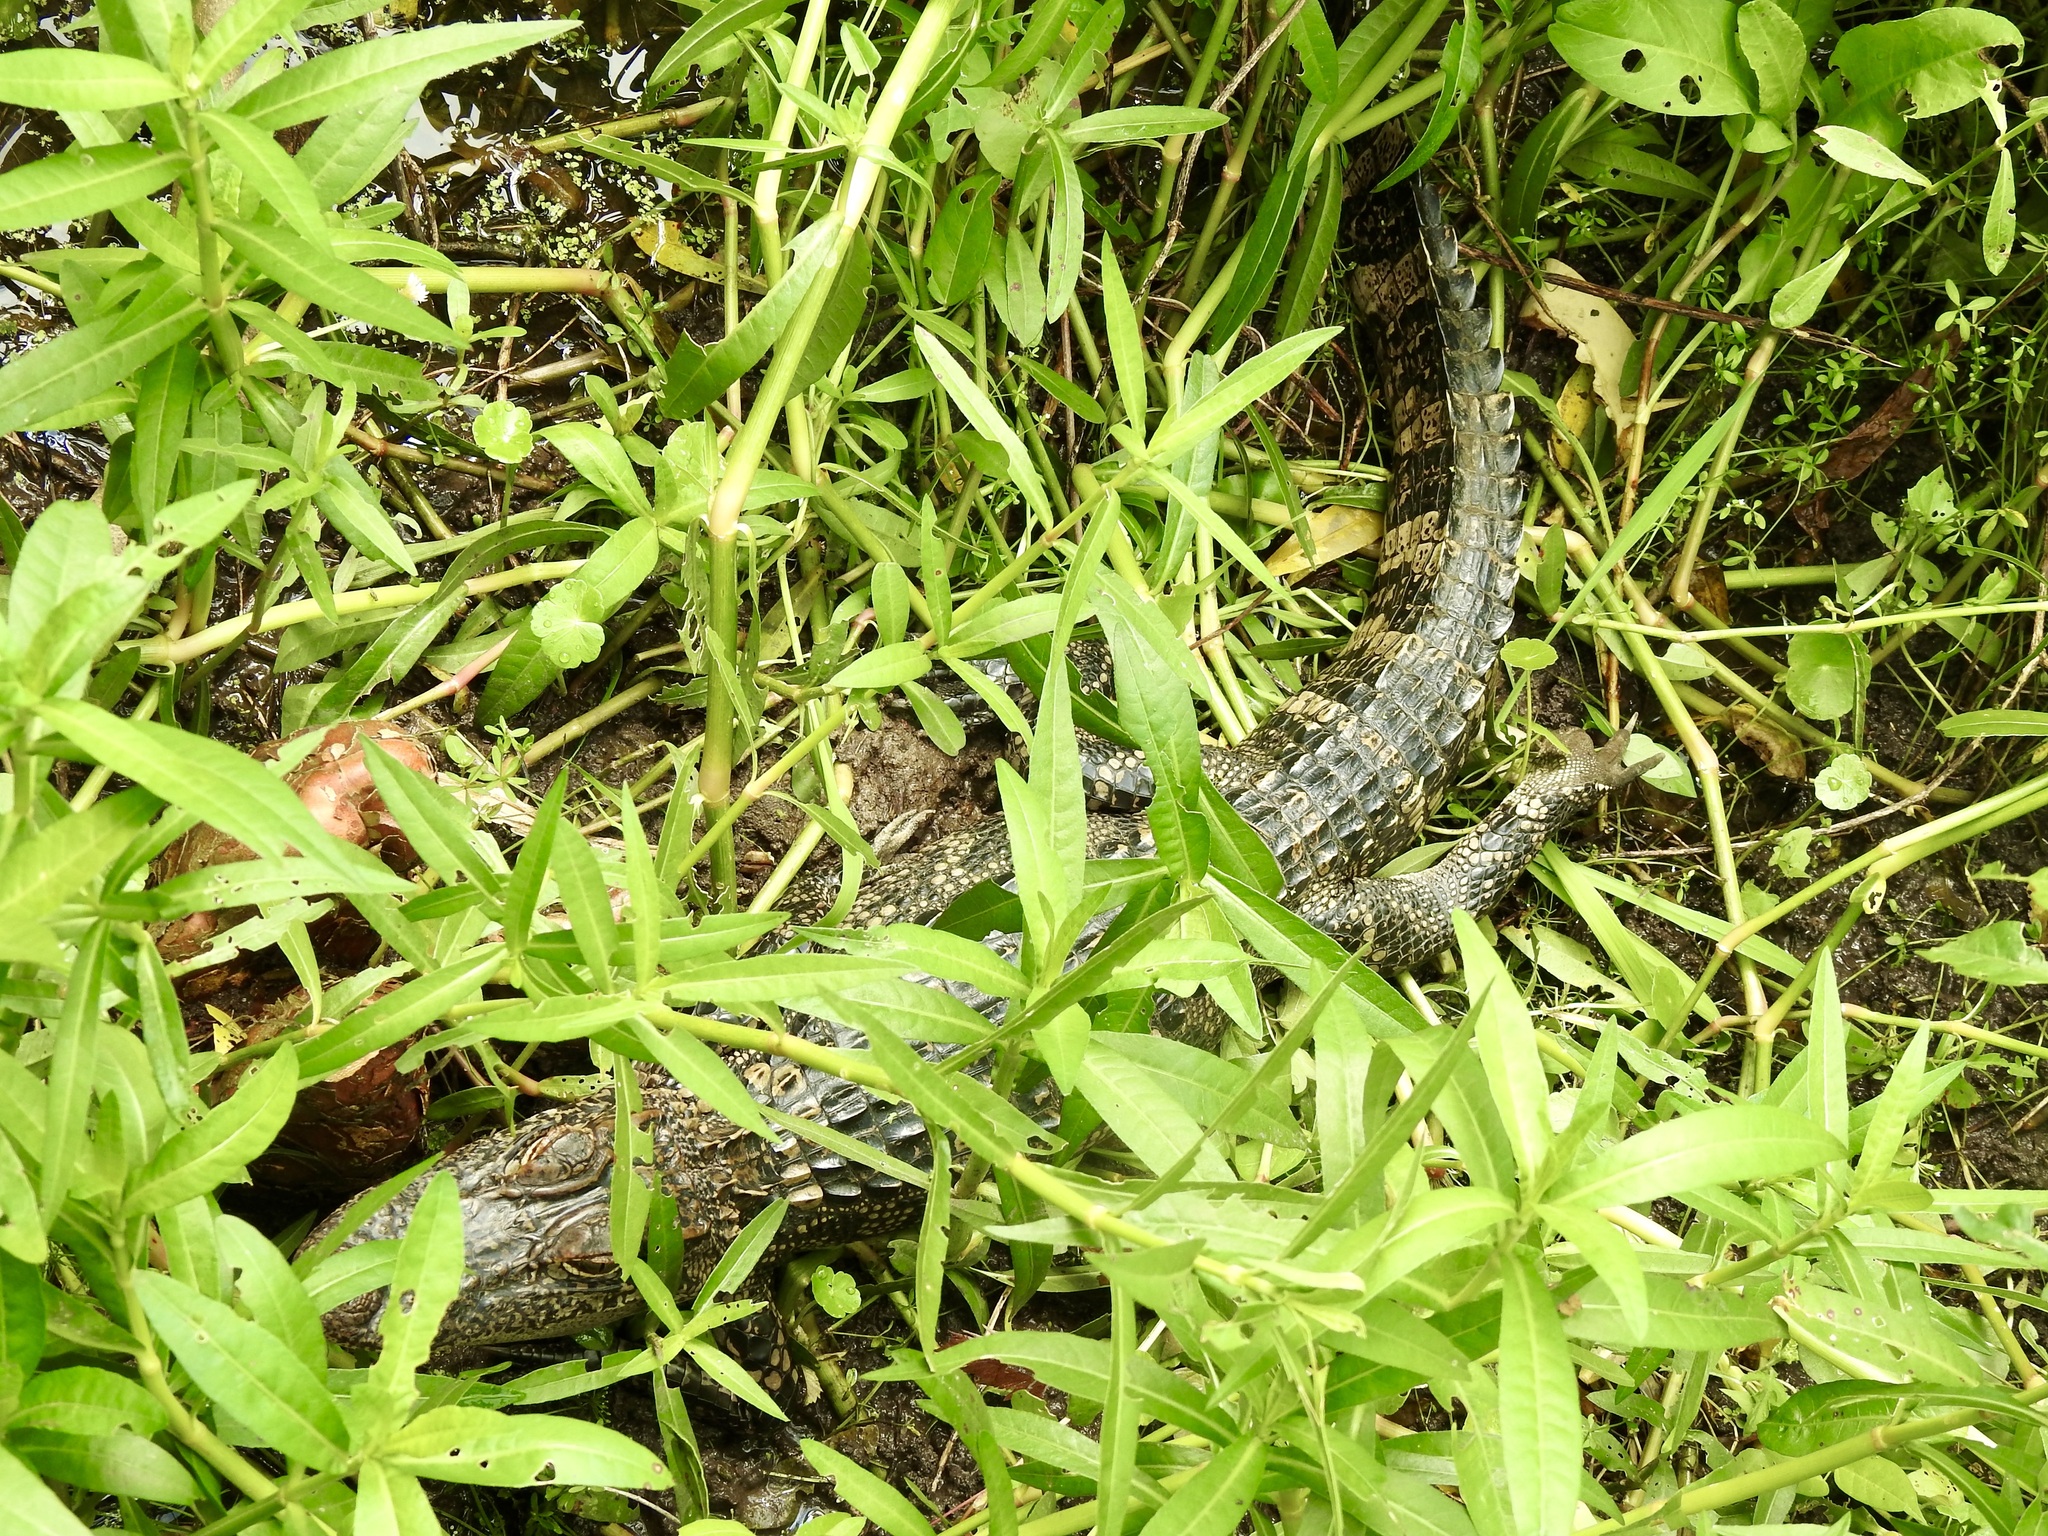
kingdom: Animalia
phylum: Chordata
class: Crocodylia
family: Alligatoridae
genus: Alligator
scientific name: Alligator mississippiensis
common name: American alligator
